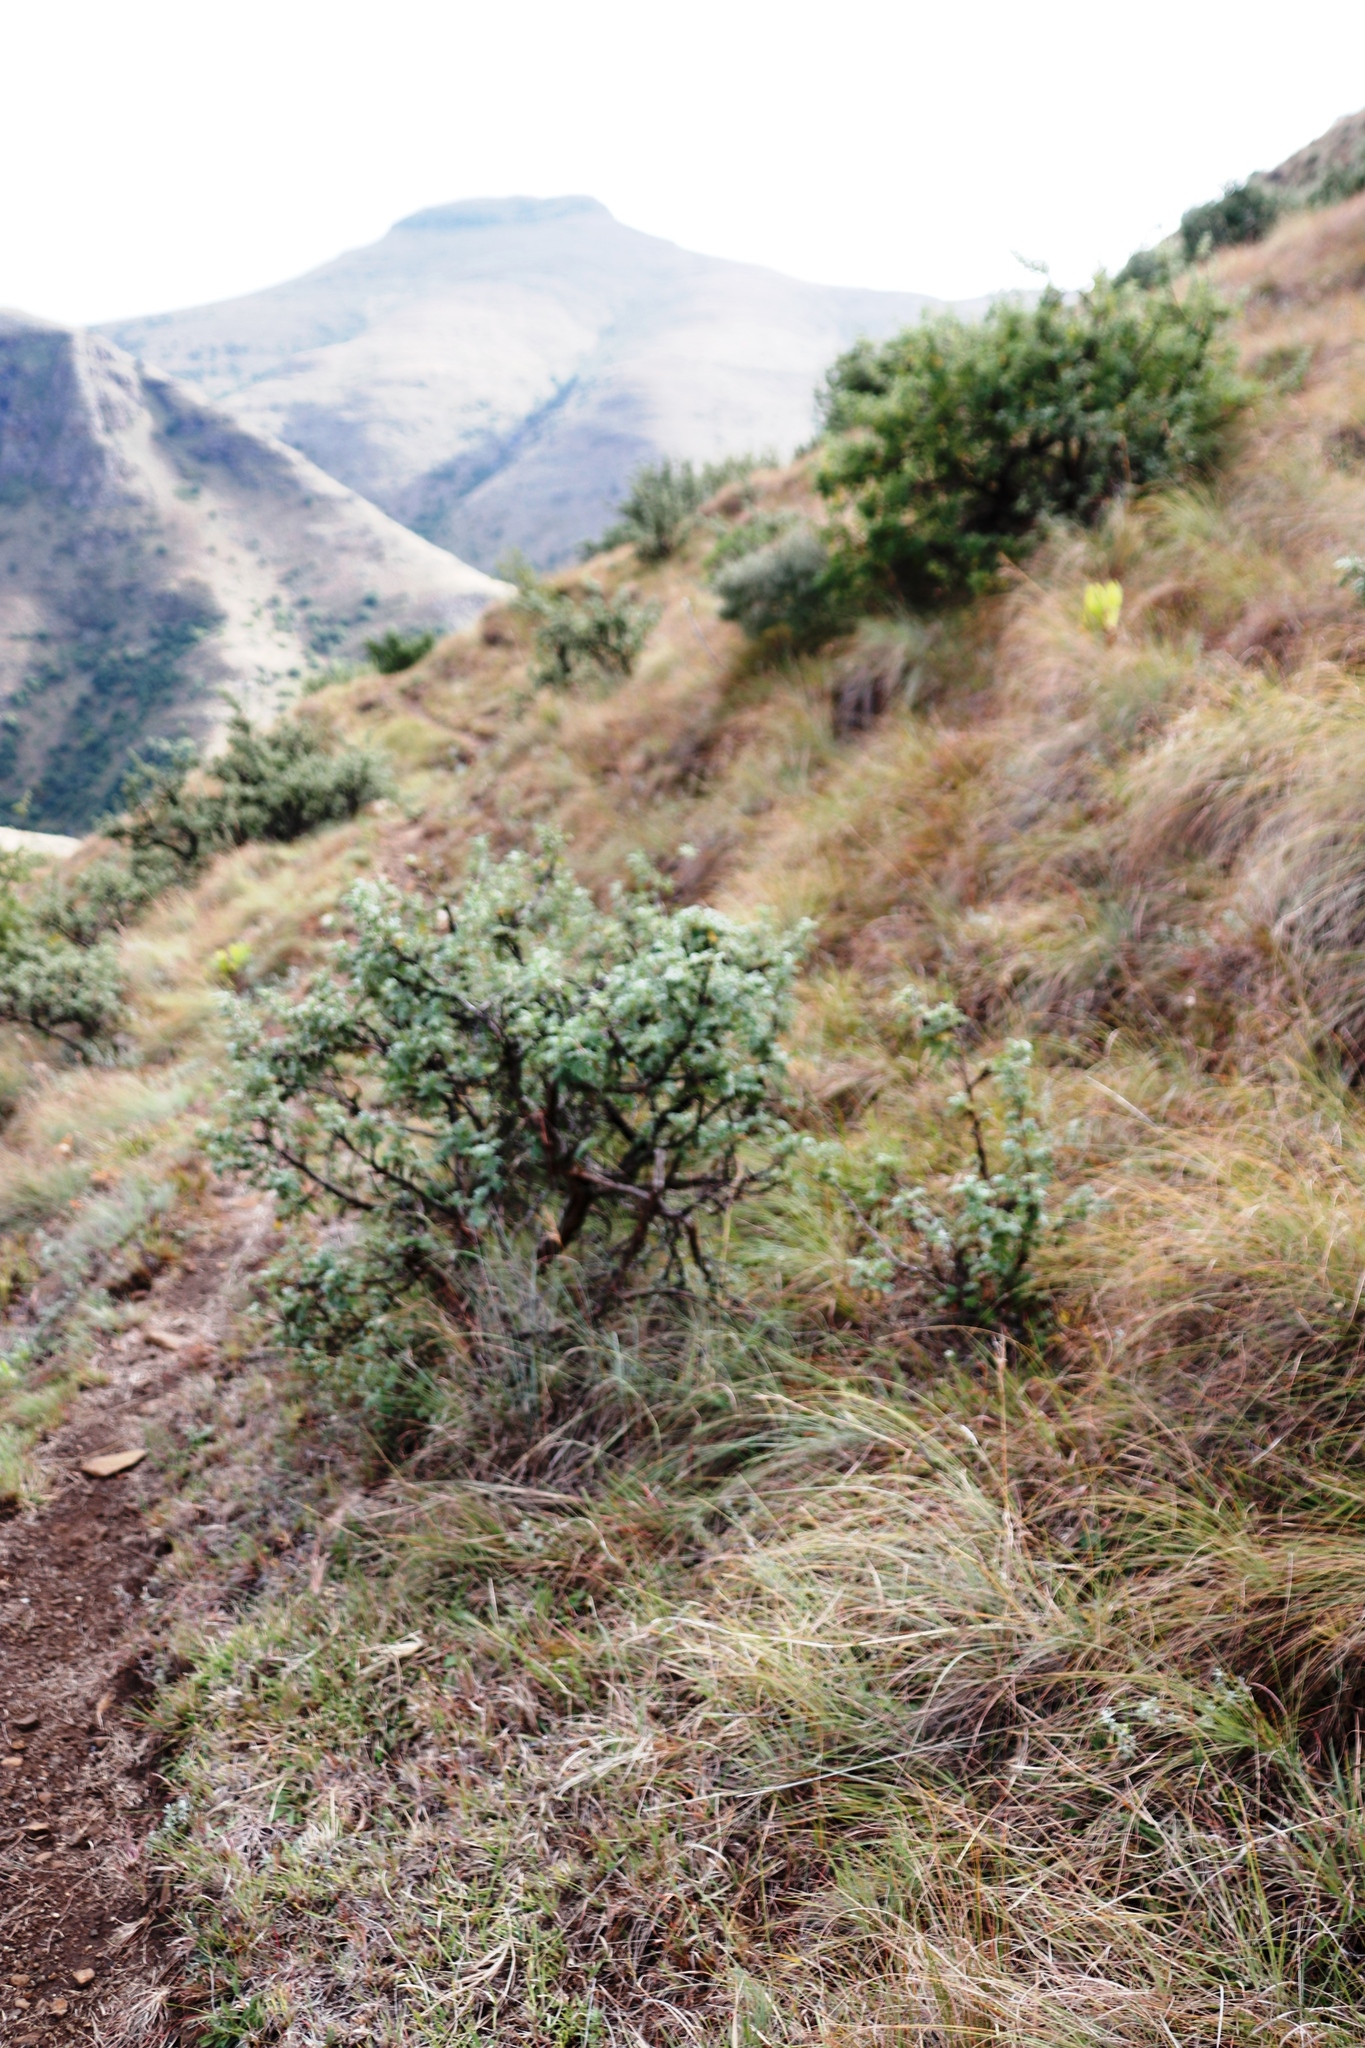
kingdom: Plantae
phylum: Tracheophyta
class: Magnoliopsida
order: Rosales
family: Rosaceae
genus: Leucosidea
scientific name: Leucosidea sericea
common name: Oldwood
